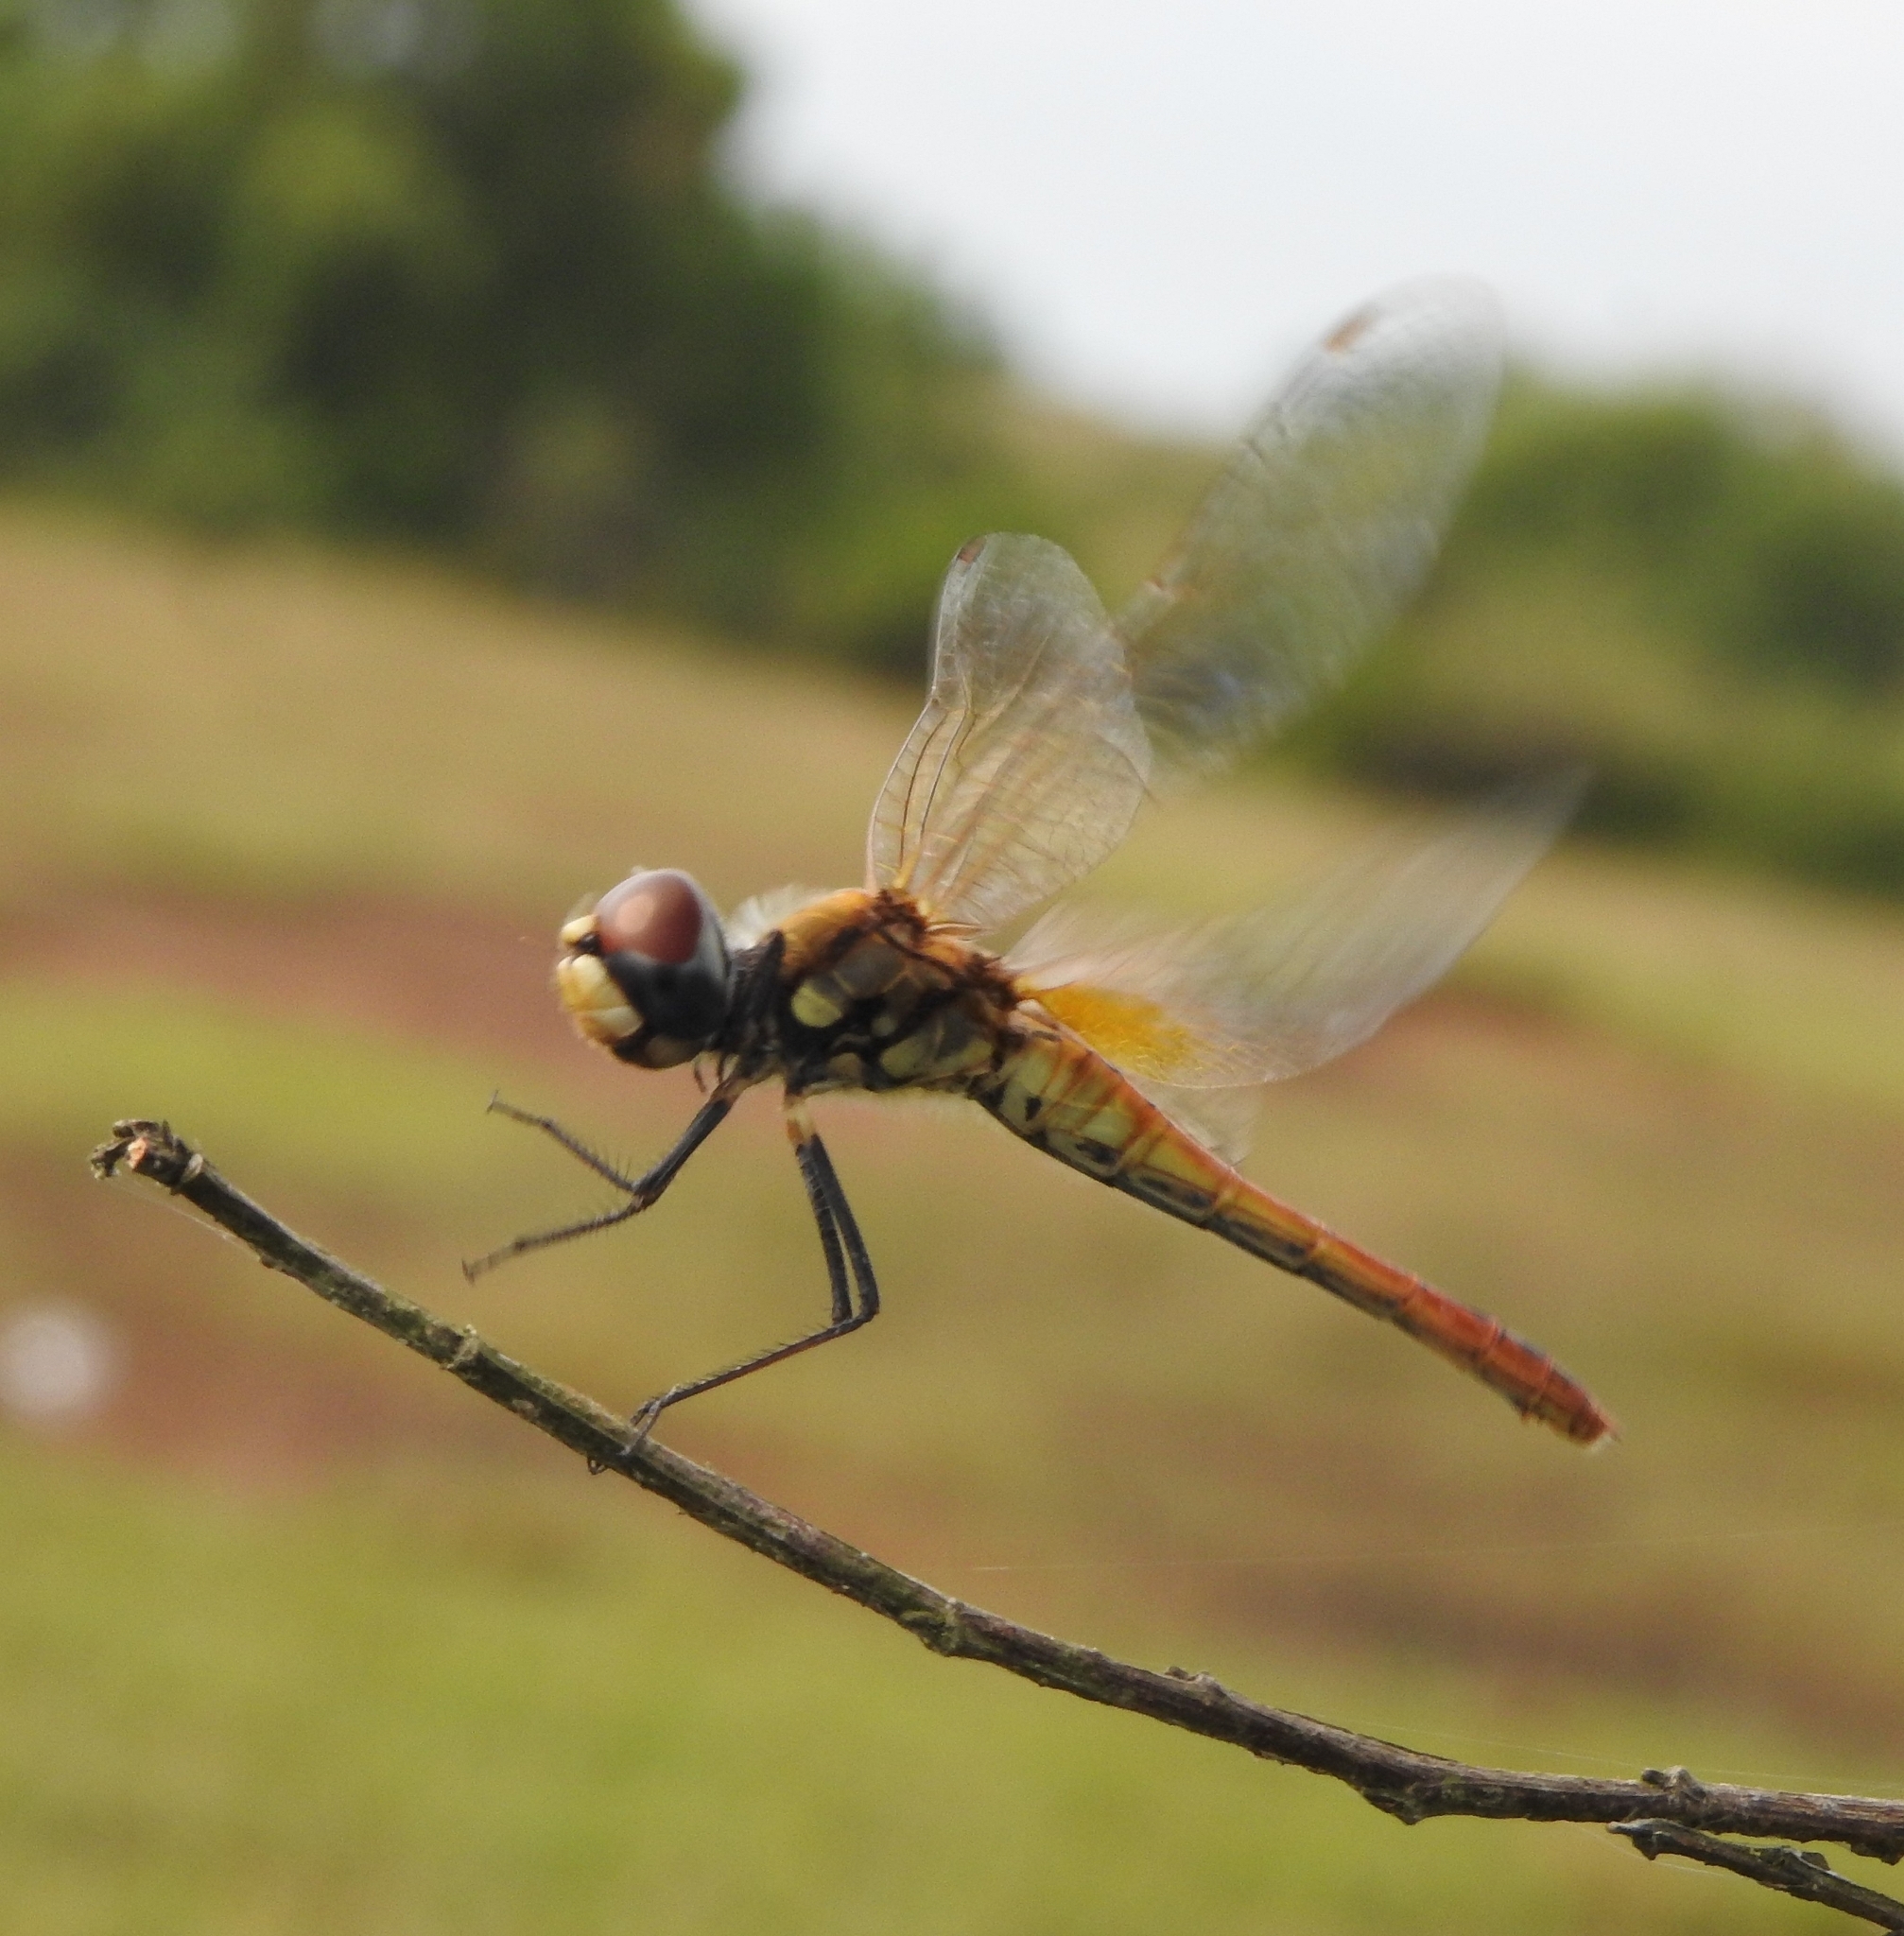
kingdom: Animalia
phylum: Arthropoda
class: Insecta
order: Odonata
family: Libellulidae
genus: Macrodiplax
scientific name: Macrodiplax cora
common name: Coastal glider
